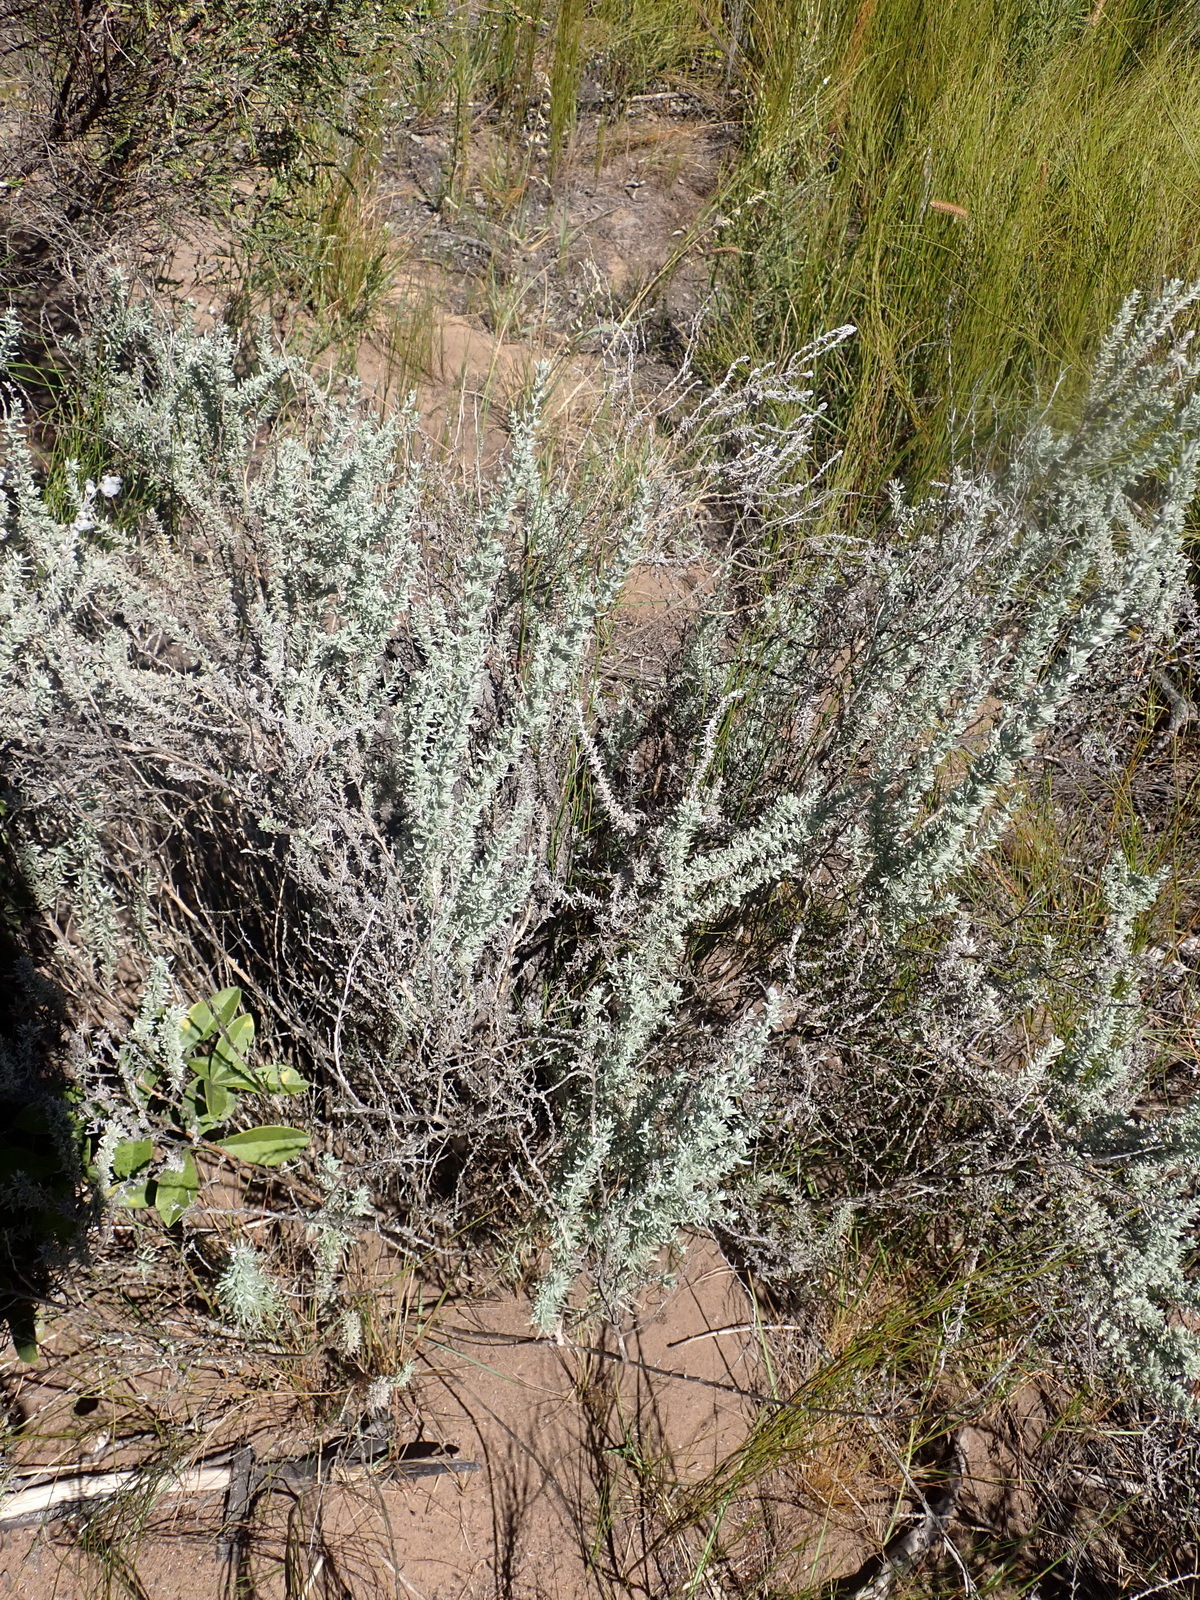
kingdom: Plantae
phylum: Tracheophyta
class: Magnoliopsida
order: Asterales
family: Asteraceae
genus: Eriocephalus
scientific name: Eriocephalus racemosus
